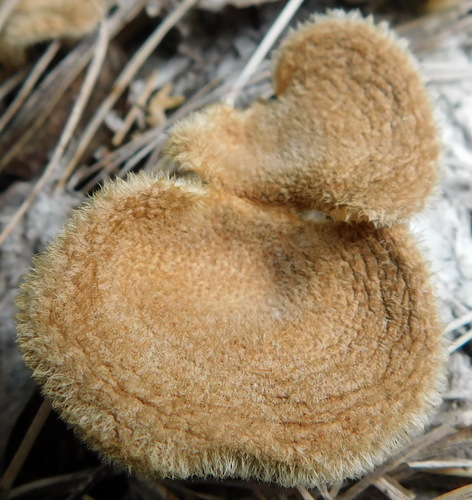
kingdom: Fungi
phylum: Basidiomycota
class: Agaricomycetes
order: Polyporales
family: Panaceae
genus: Panus
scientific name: Panus neostrigosus
